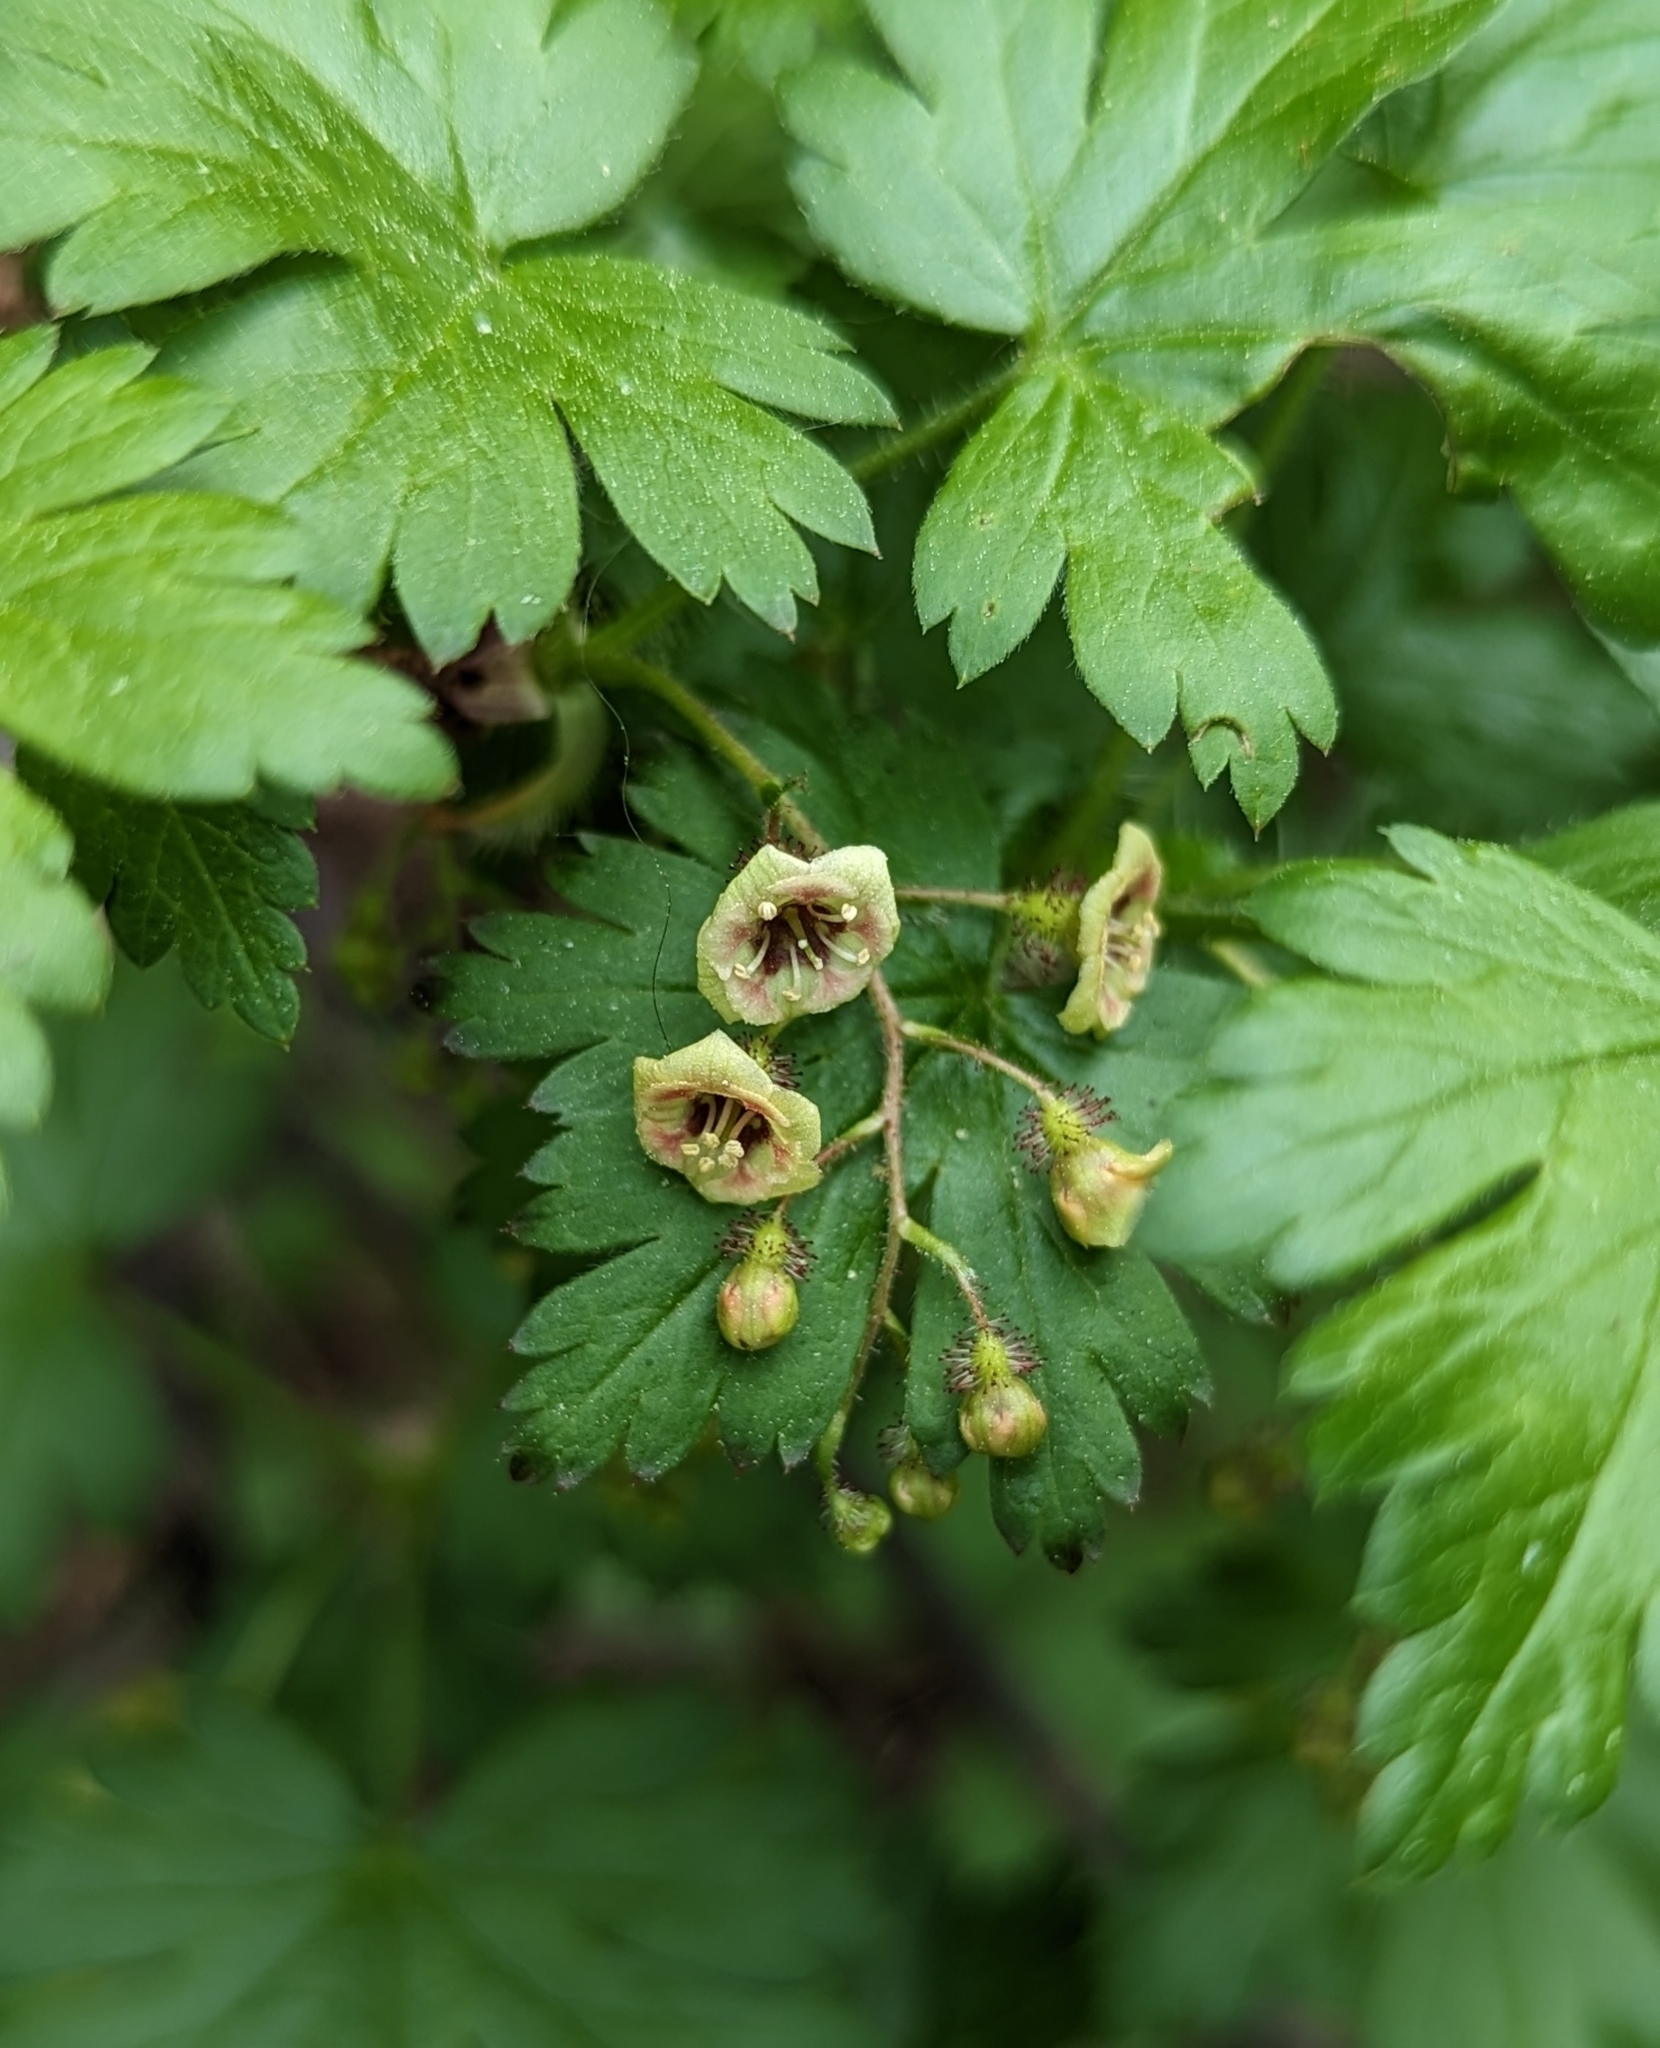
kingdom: Plantae
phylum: Tracheophyta
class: Magnoliopsida
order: Saxifragales
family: Grossulariaceae
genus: Ribes
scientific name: Ribes lacustre
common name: Black gooseberry
